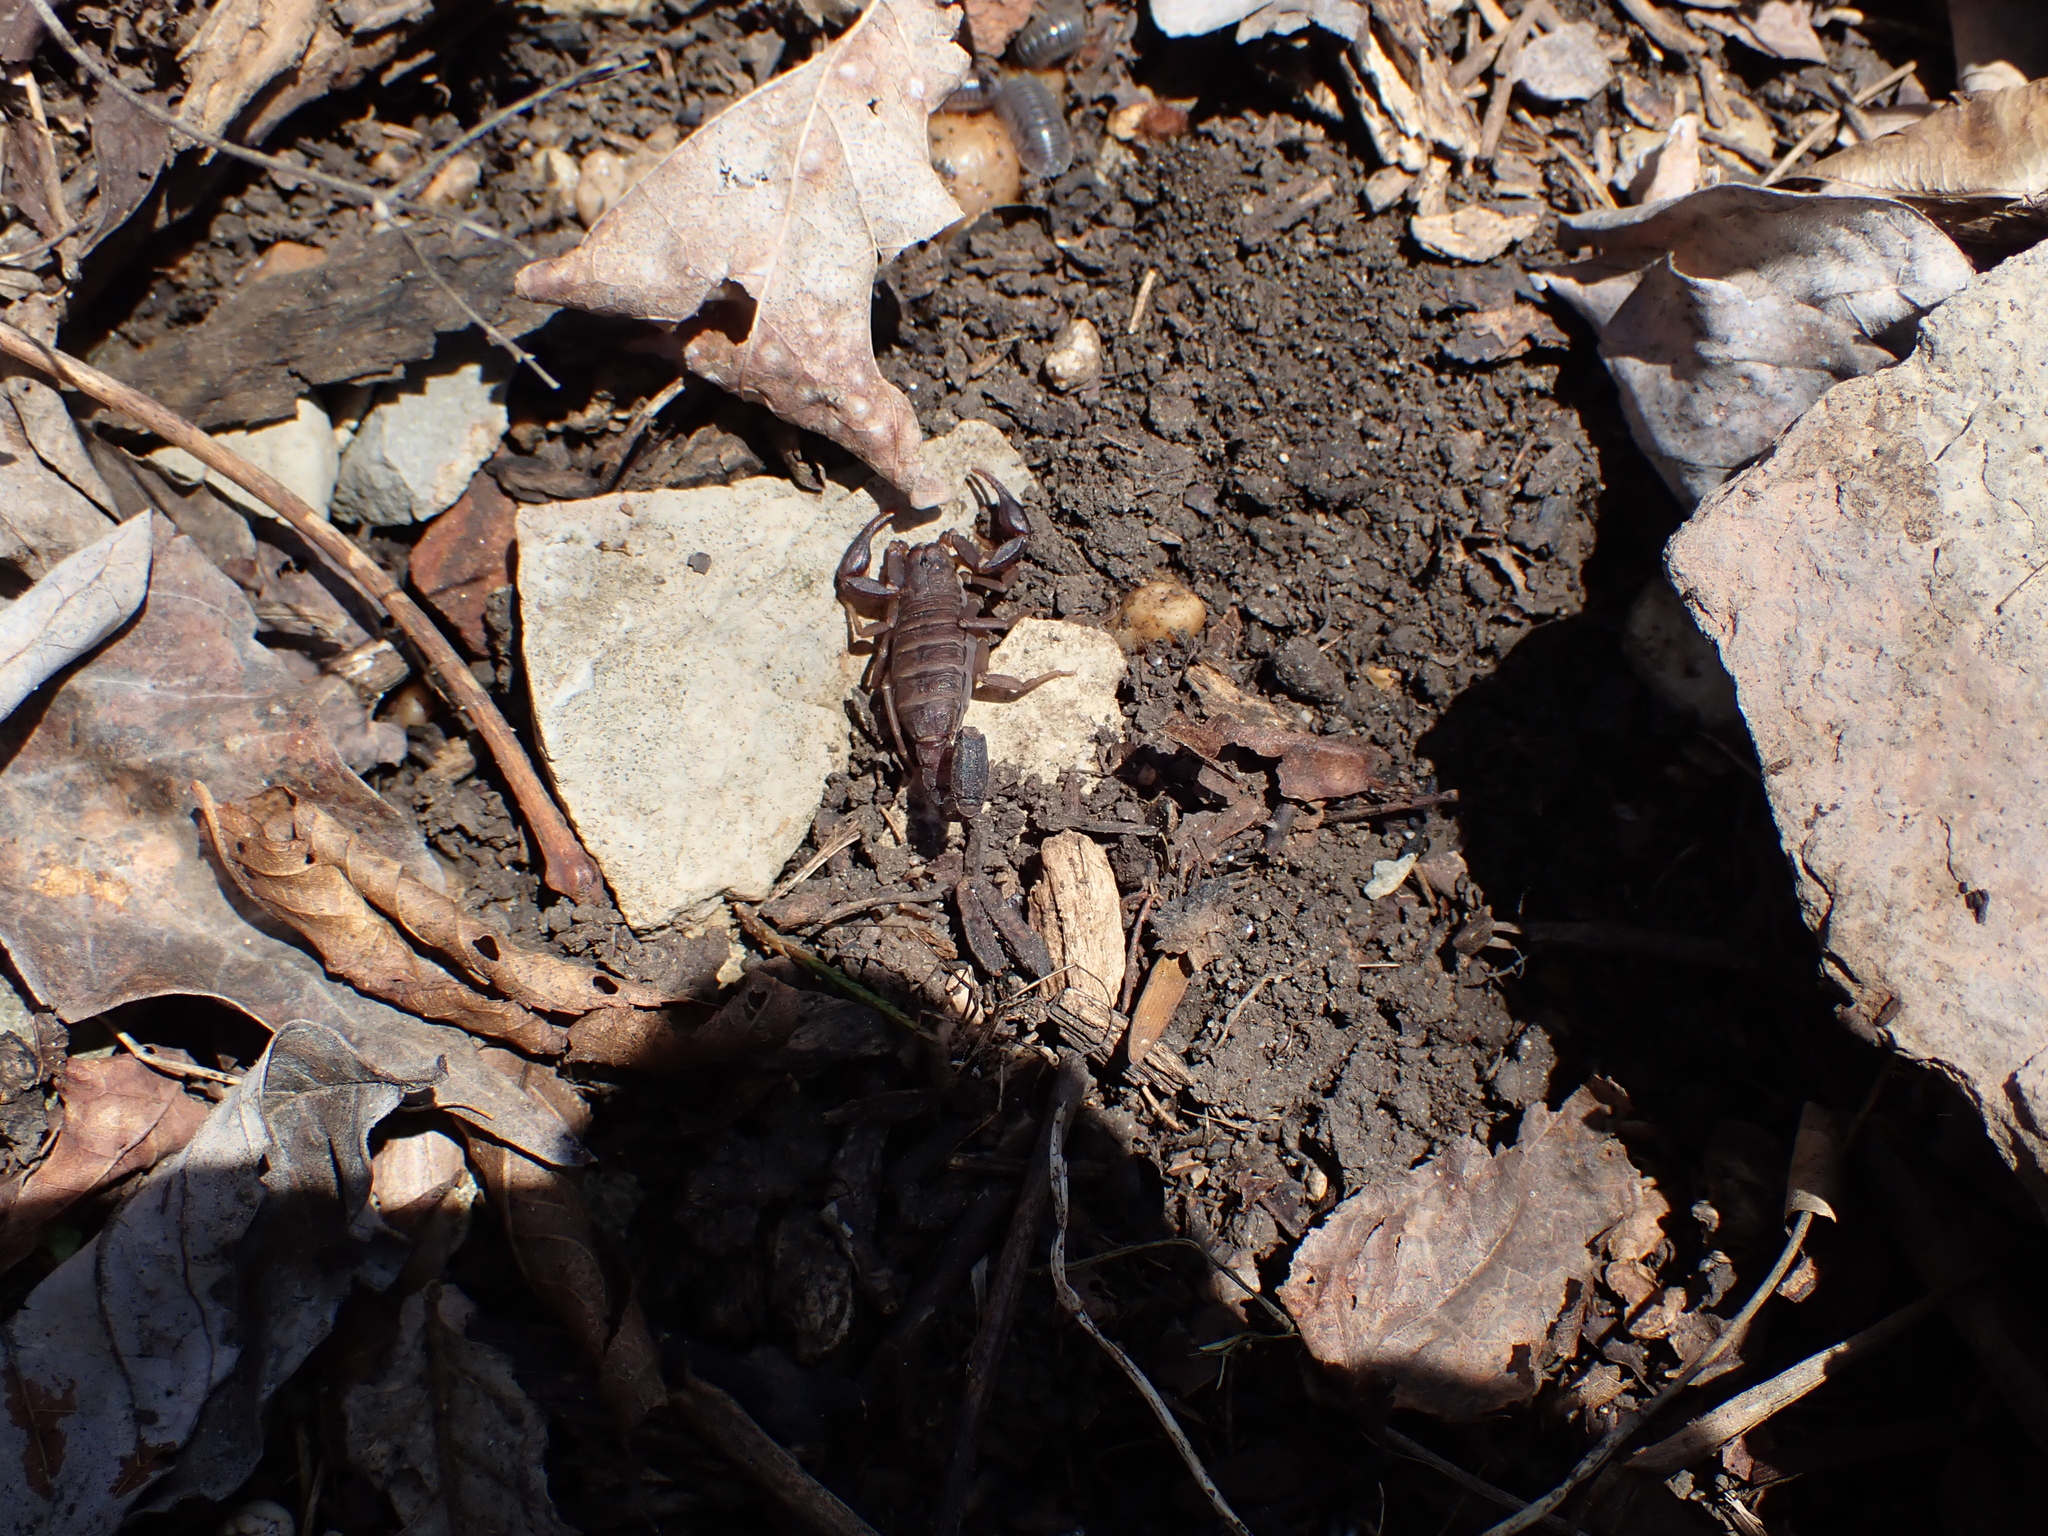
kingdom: Animalia
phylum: Arthropoda
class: Arachnida
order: Scorpiones
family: Vaejovidae
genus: Vaejovis
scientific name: Vaejovis carolinianus
